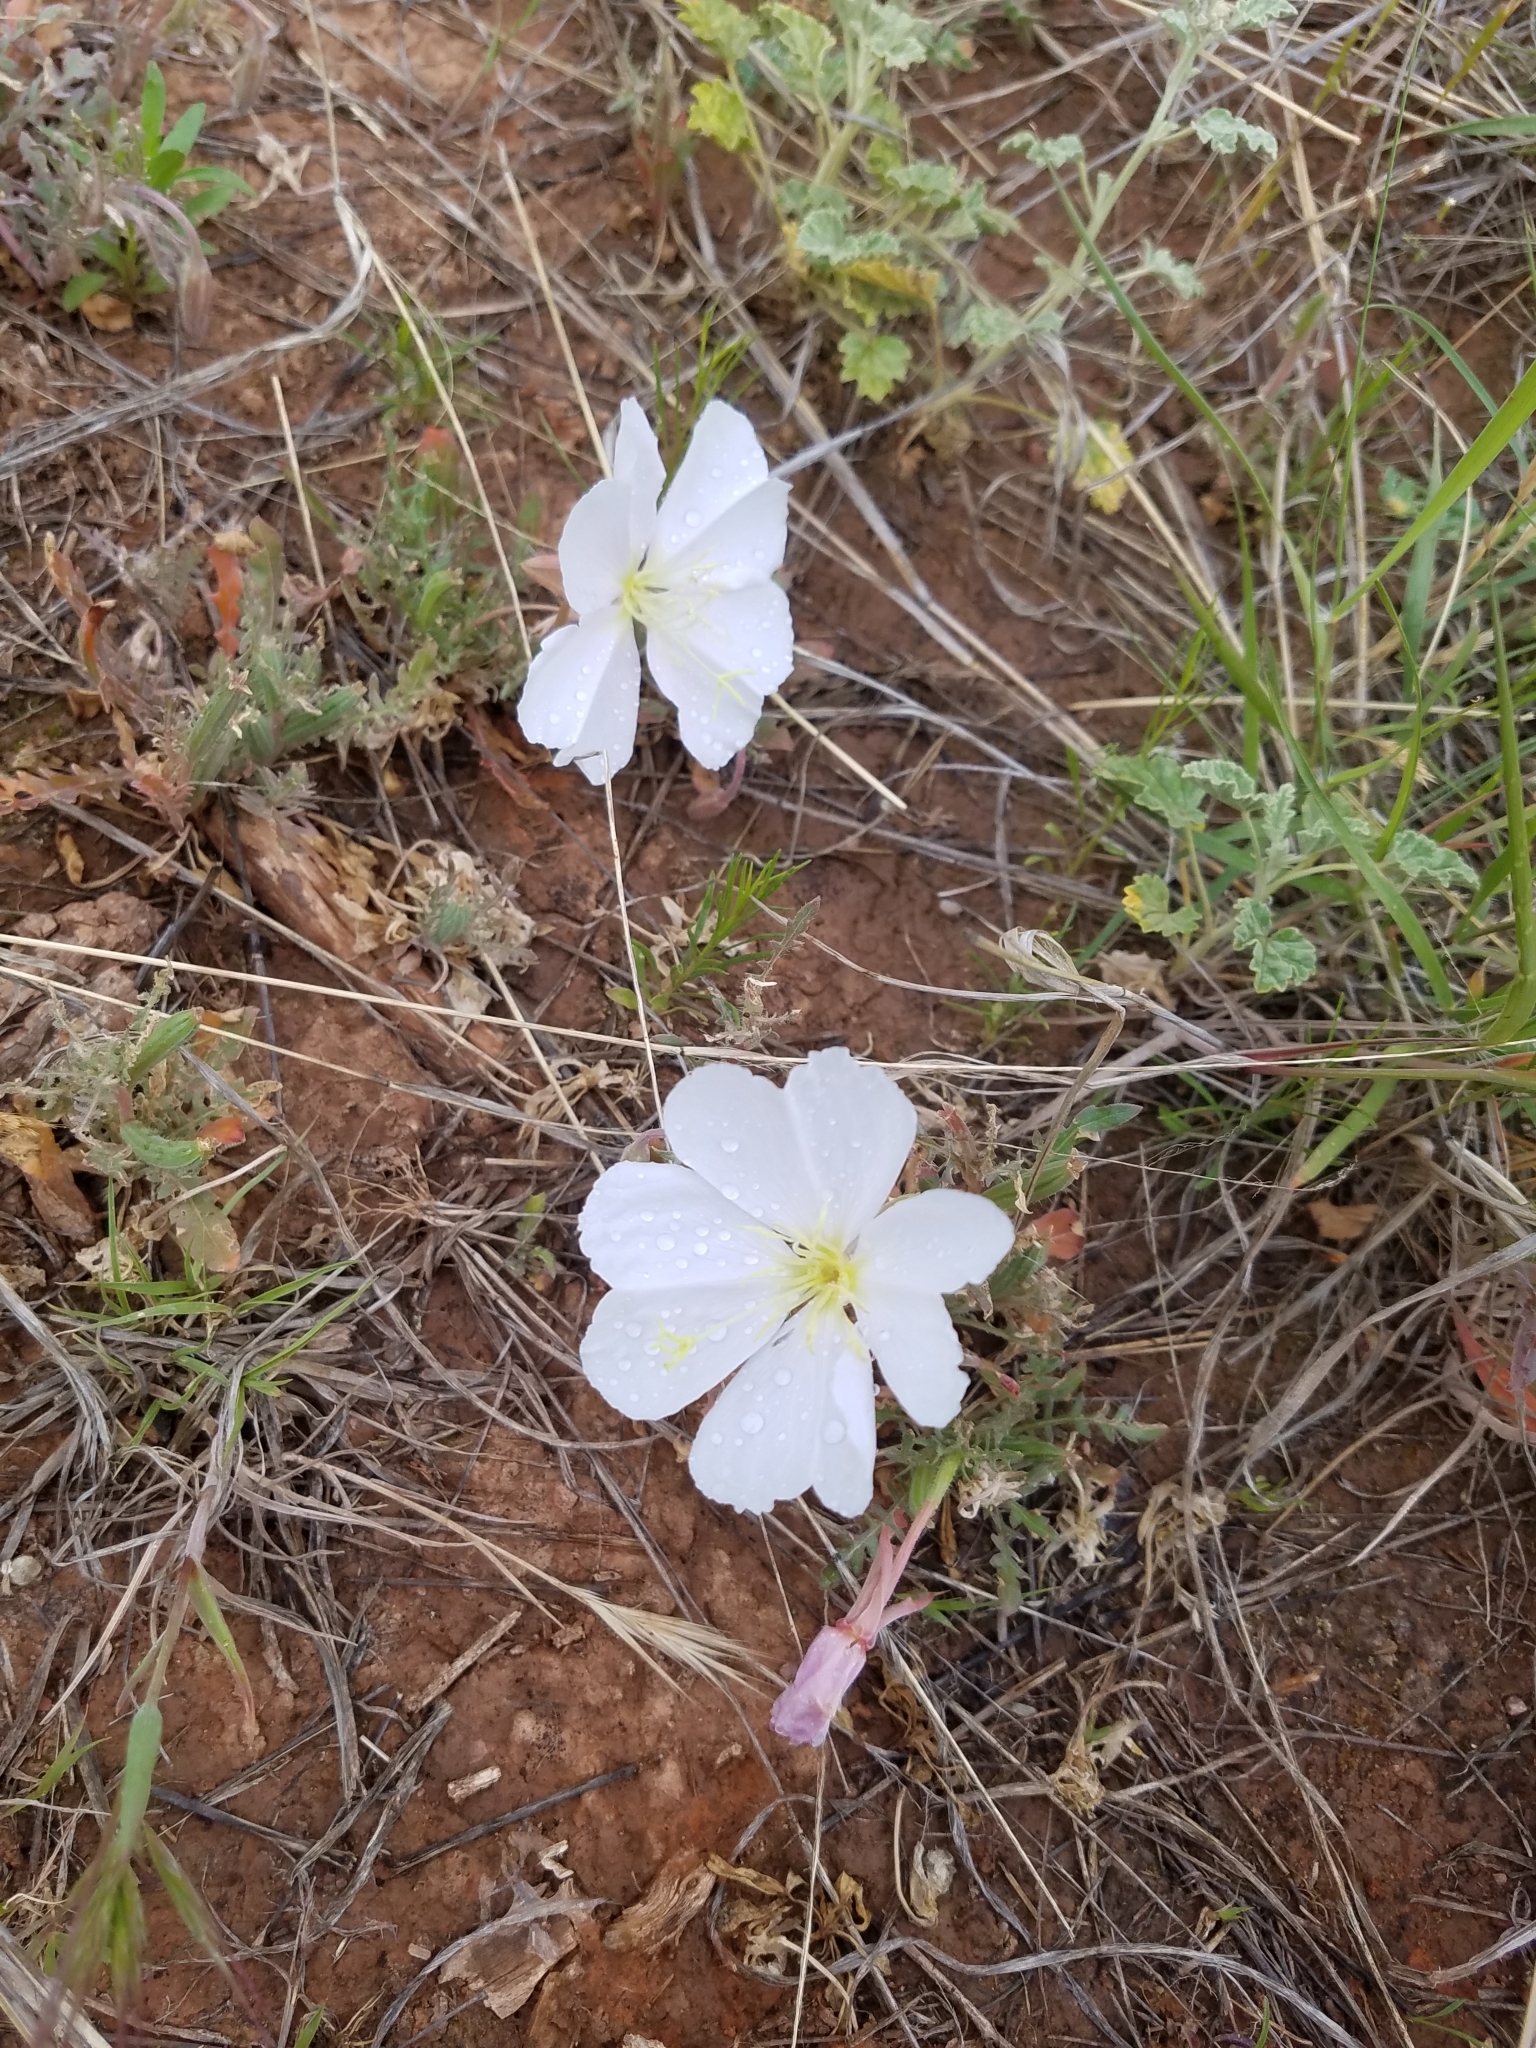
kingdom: Plantae
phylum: Tracheophyta
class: Magnoliopsida
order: Myrtales
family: Onagraceae
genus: Oenothera
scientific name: Oenothera albicaulis
